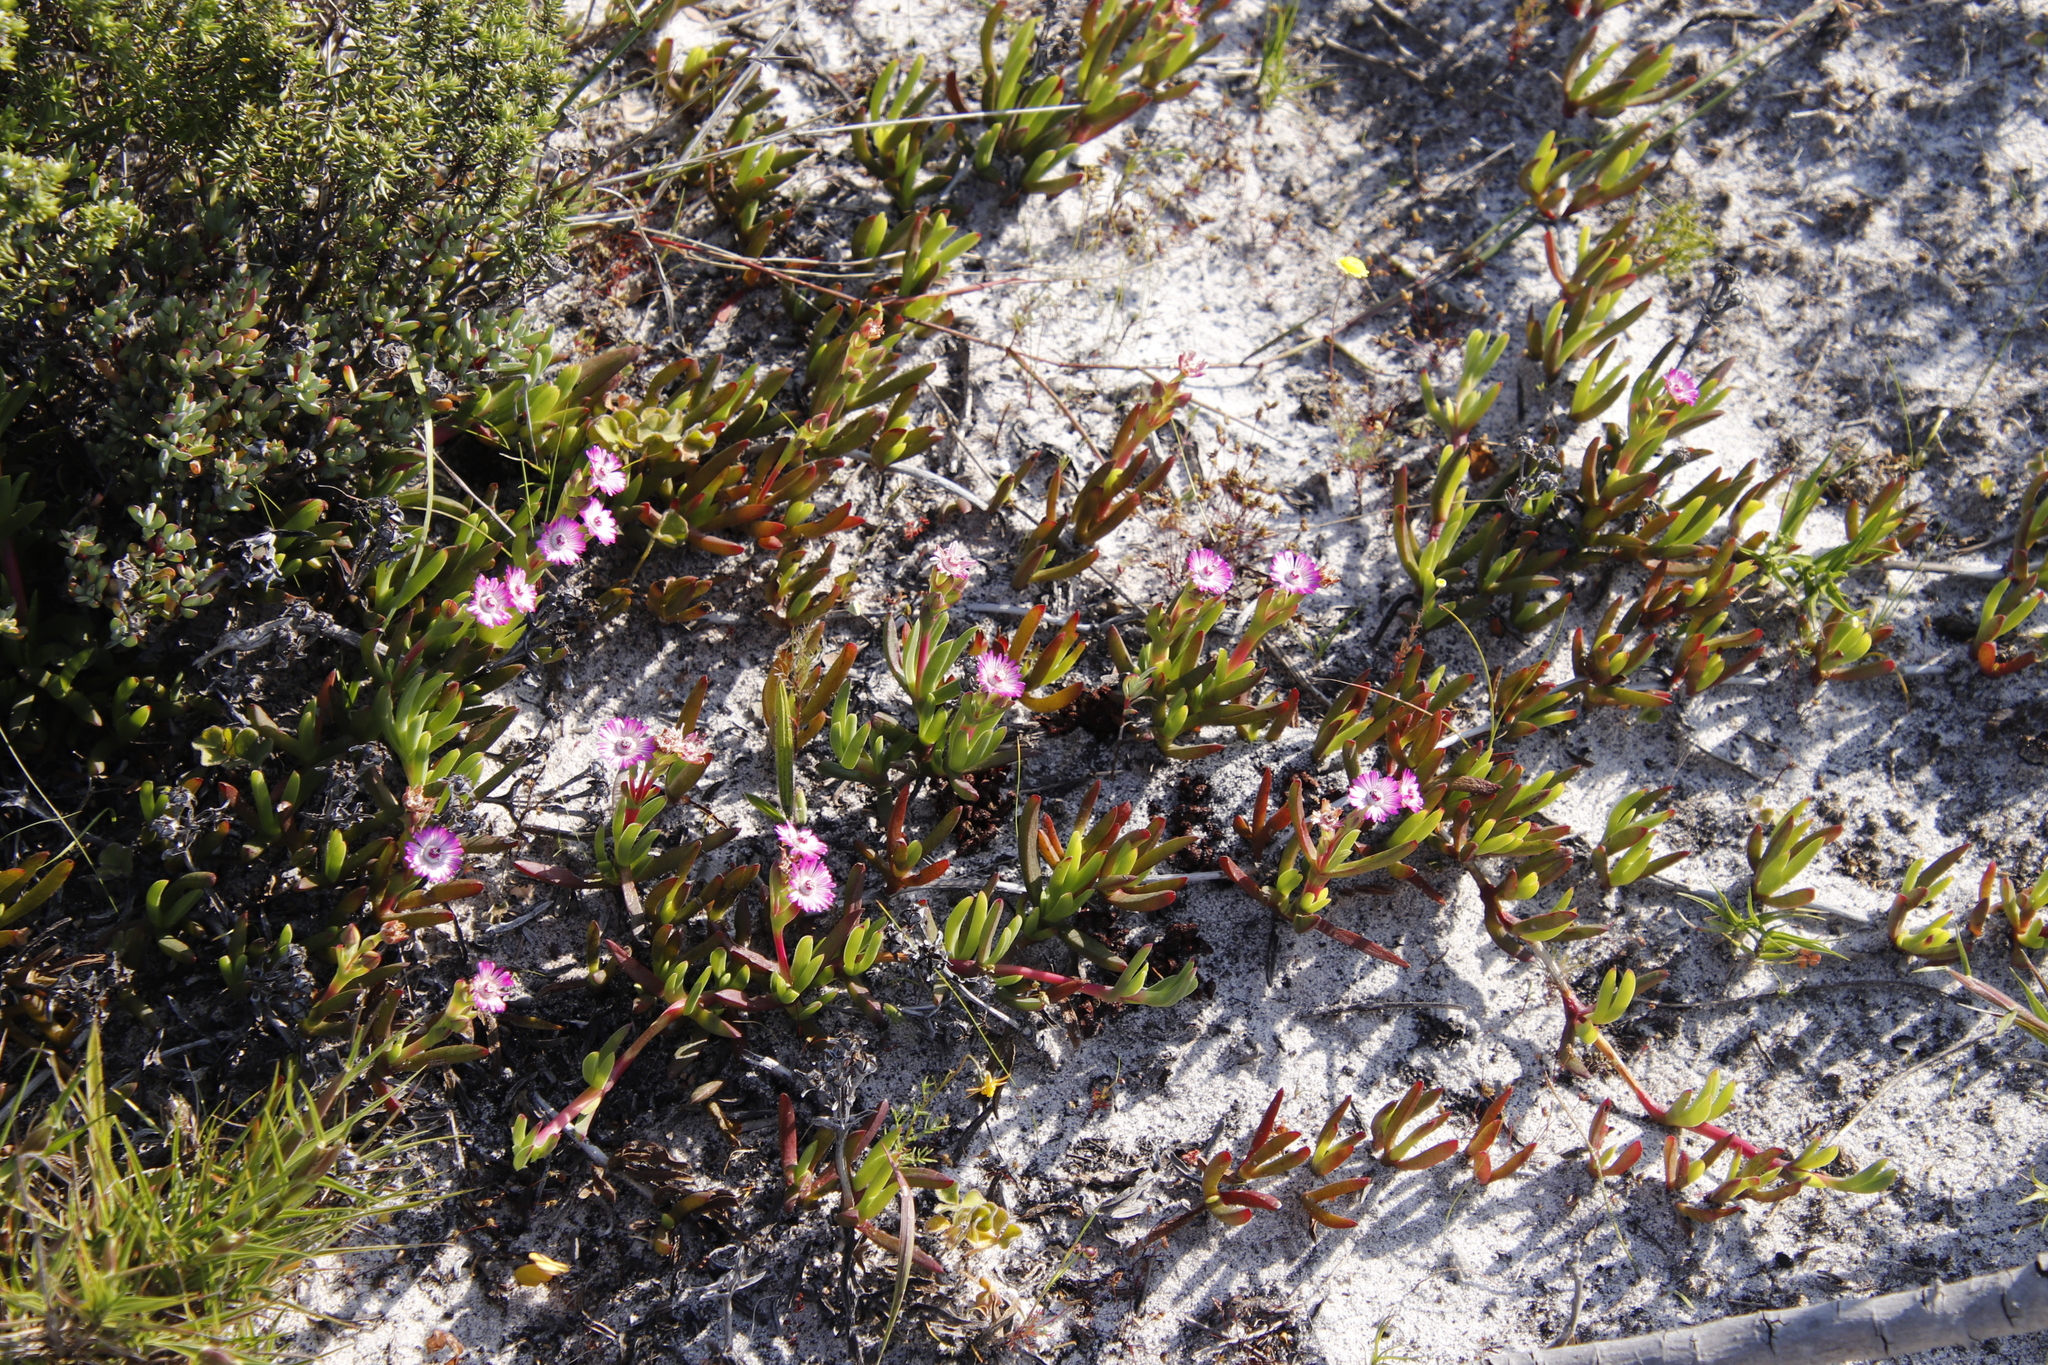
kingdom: Plantae
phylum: Tracheophyta
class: Magnoliopsida
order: Caryophyllales
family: Aizoaceae
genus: Ruschia
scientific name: Ruschia sarmentosa
